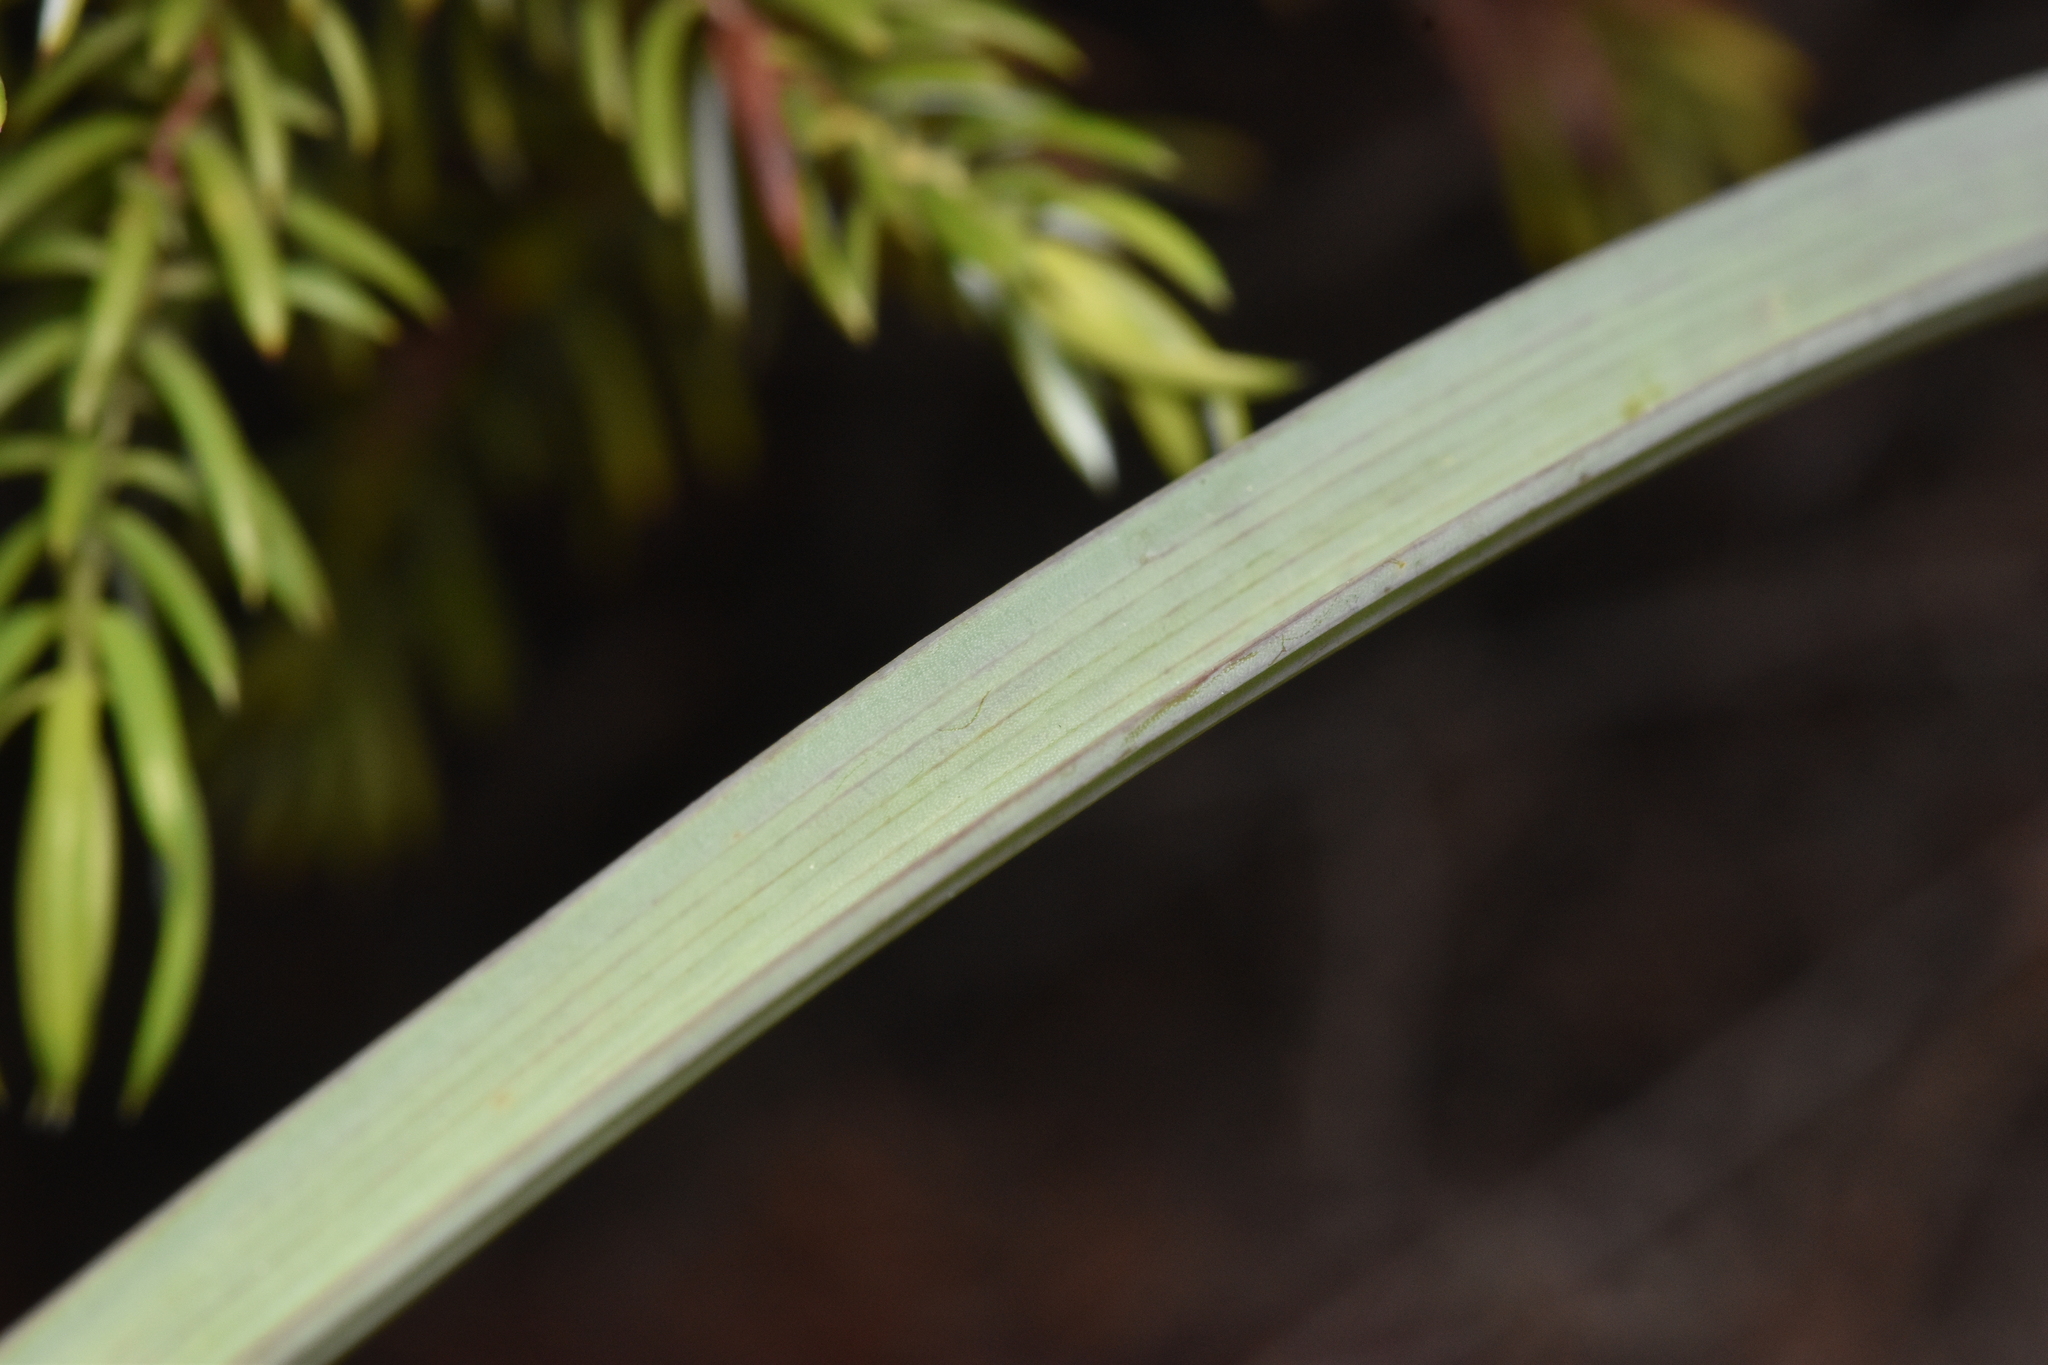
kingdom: Plantae
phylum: Tracheophyta
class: Liliopsida
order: Liliales
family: Liliaceae
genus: Calochortus
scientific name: Calochortus macrocarpus
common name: Green-band mariposa lily
